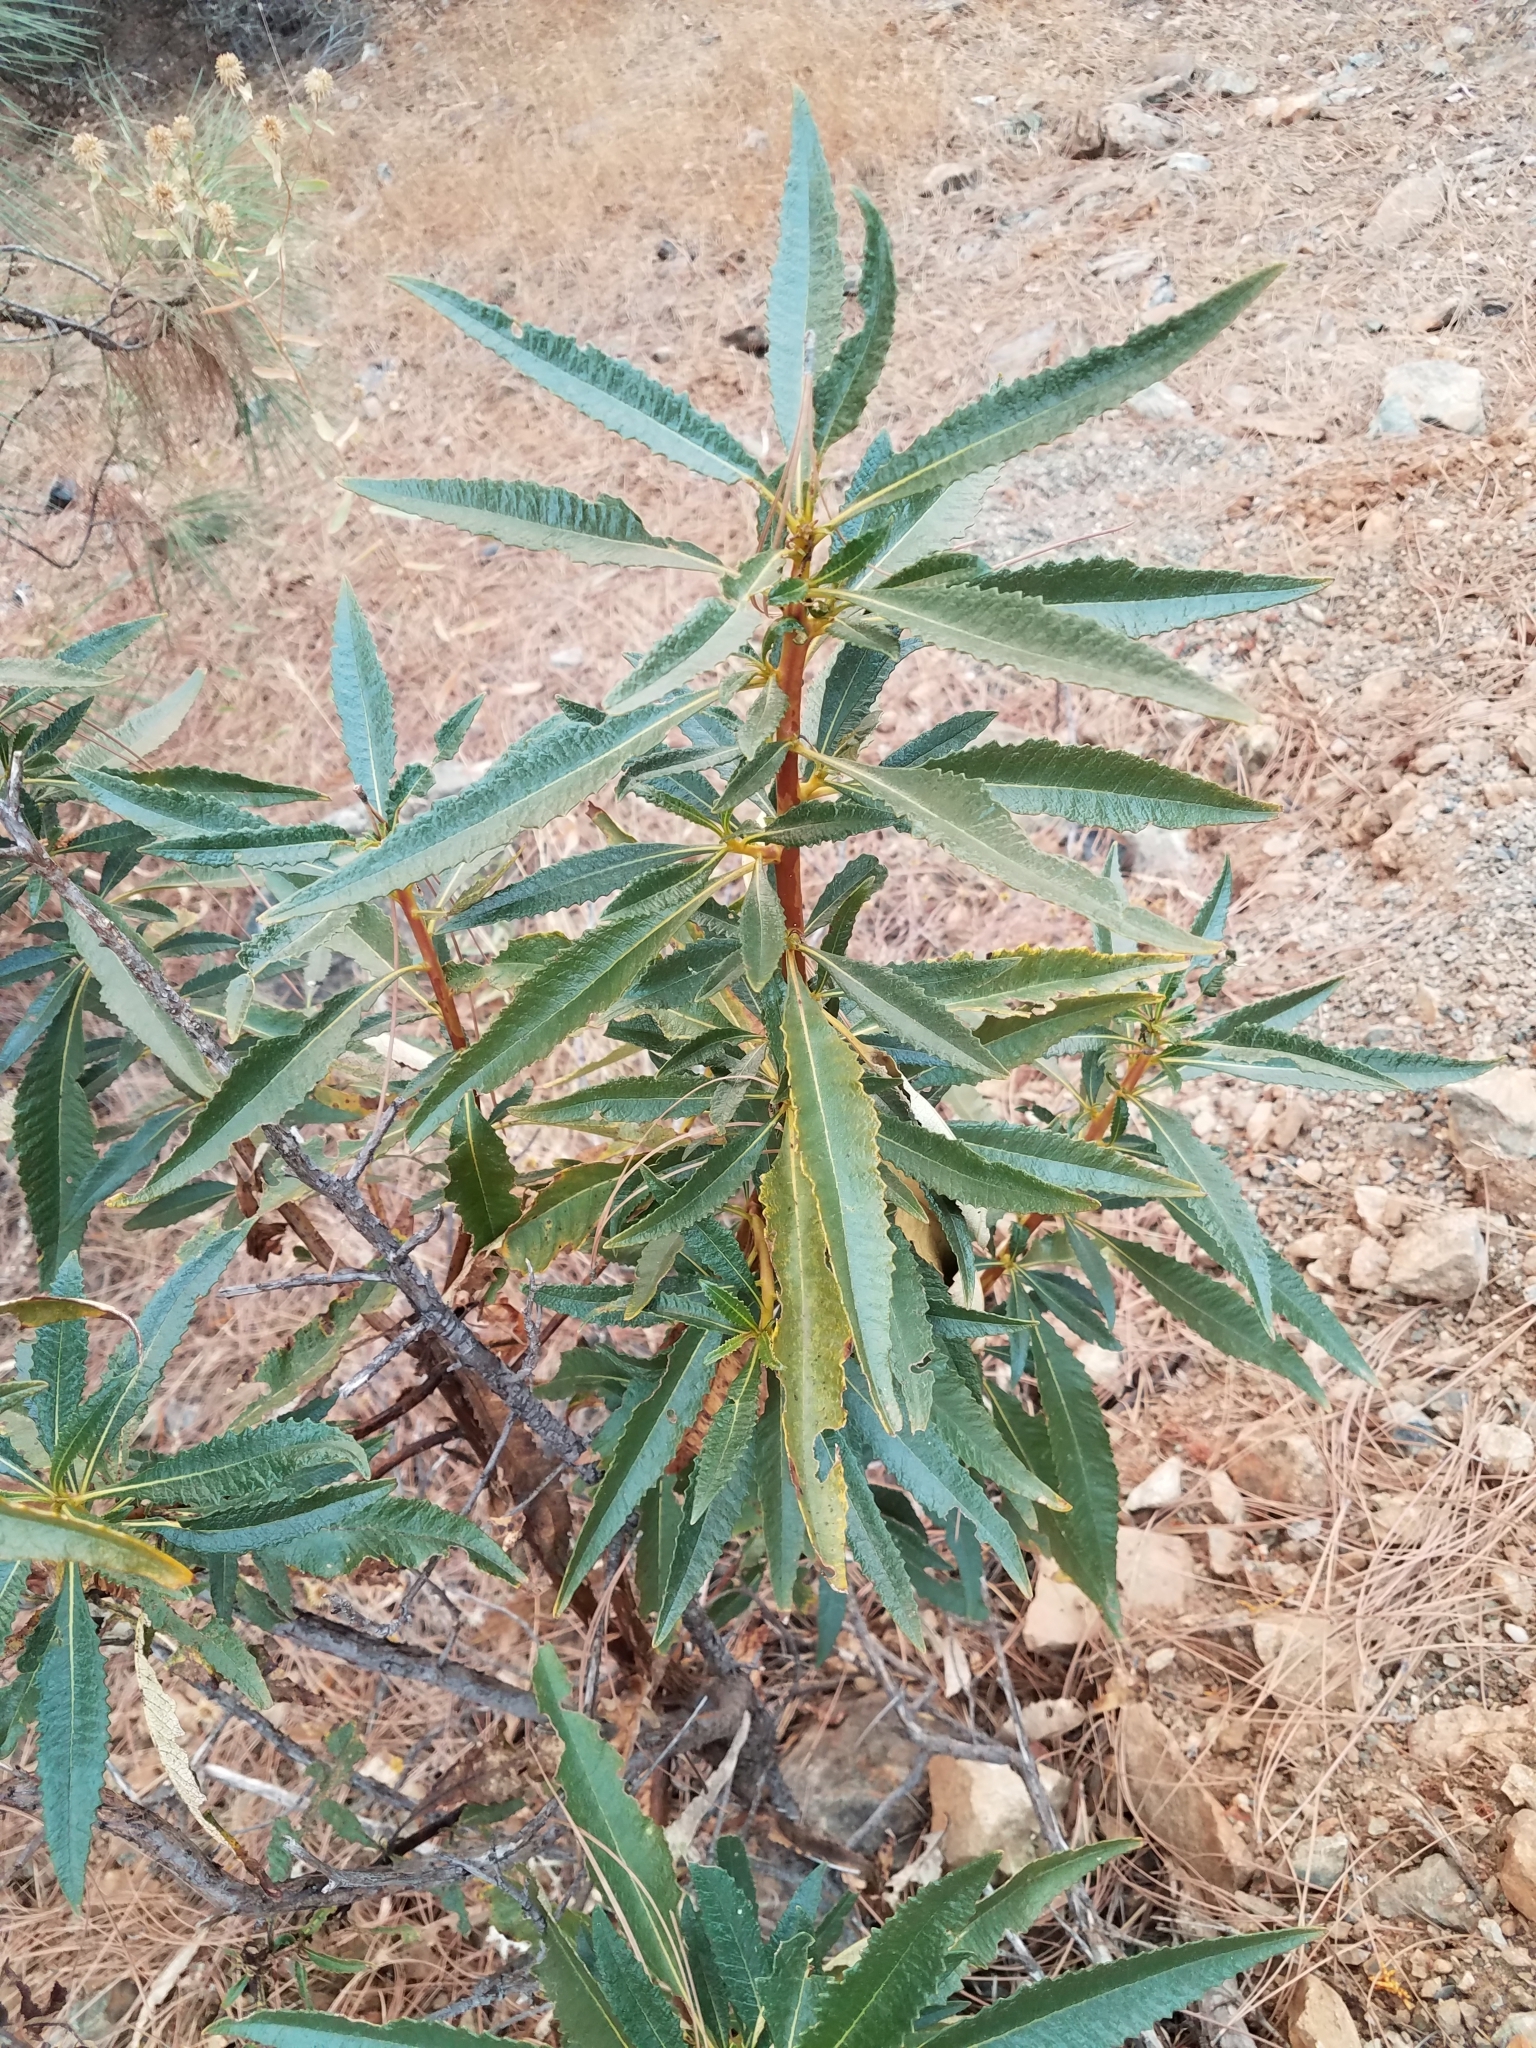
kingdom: Plantae
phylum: Tracheophyta
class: Magnoliopsida
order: Boraginales
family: Namaceae
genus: Eriodictyon
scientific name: Eriodictyon californicum
